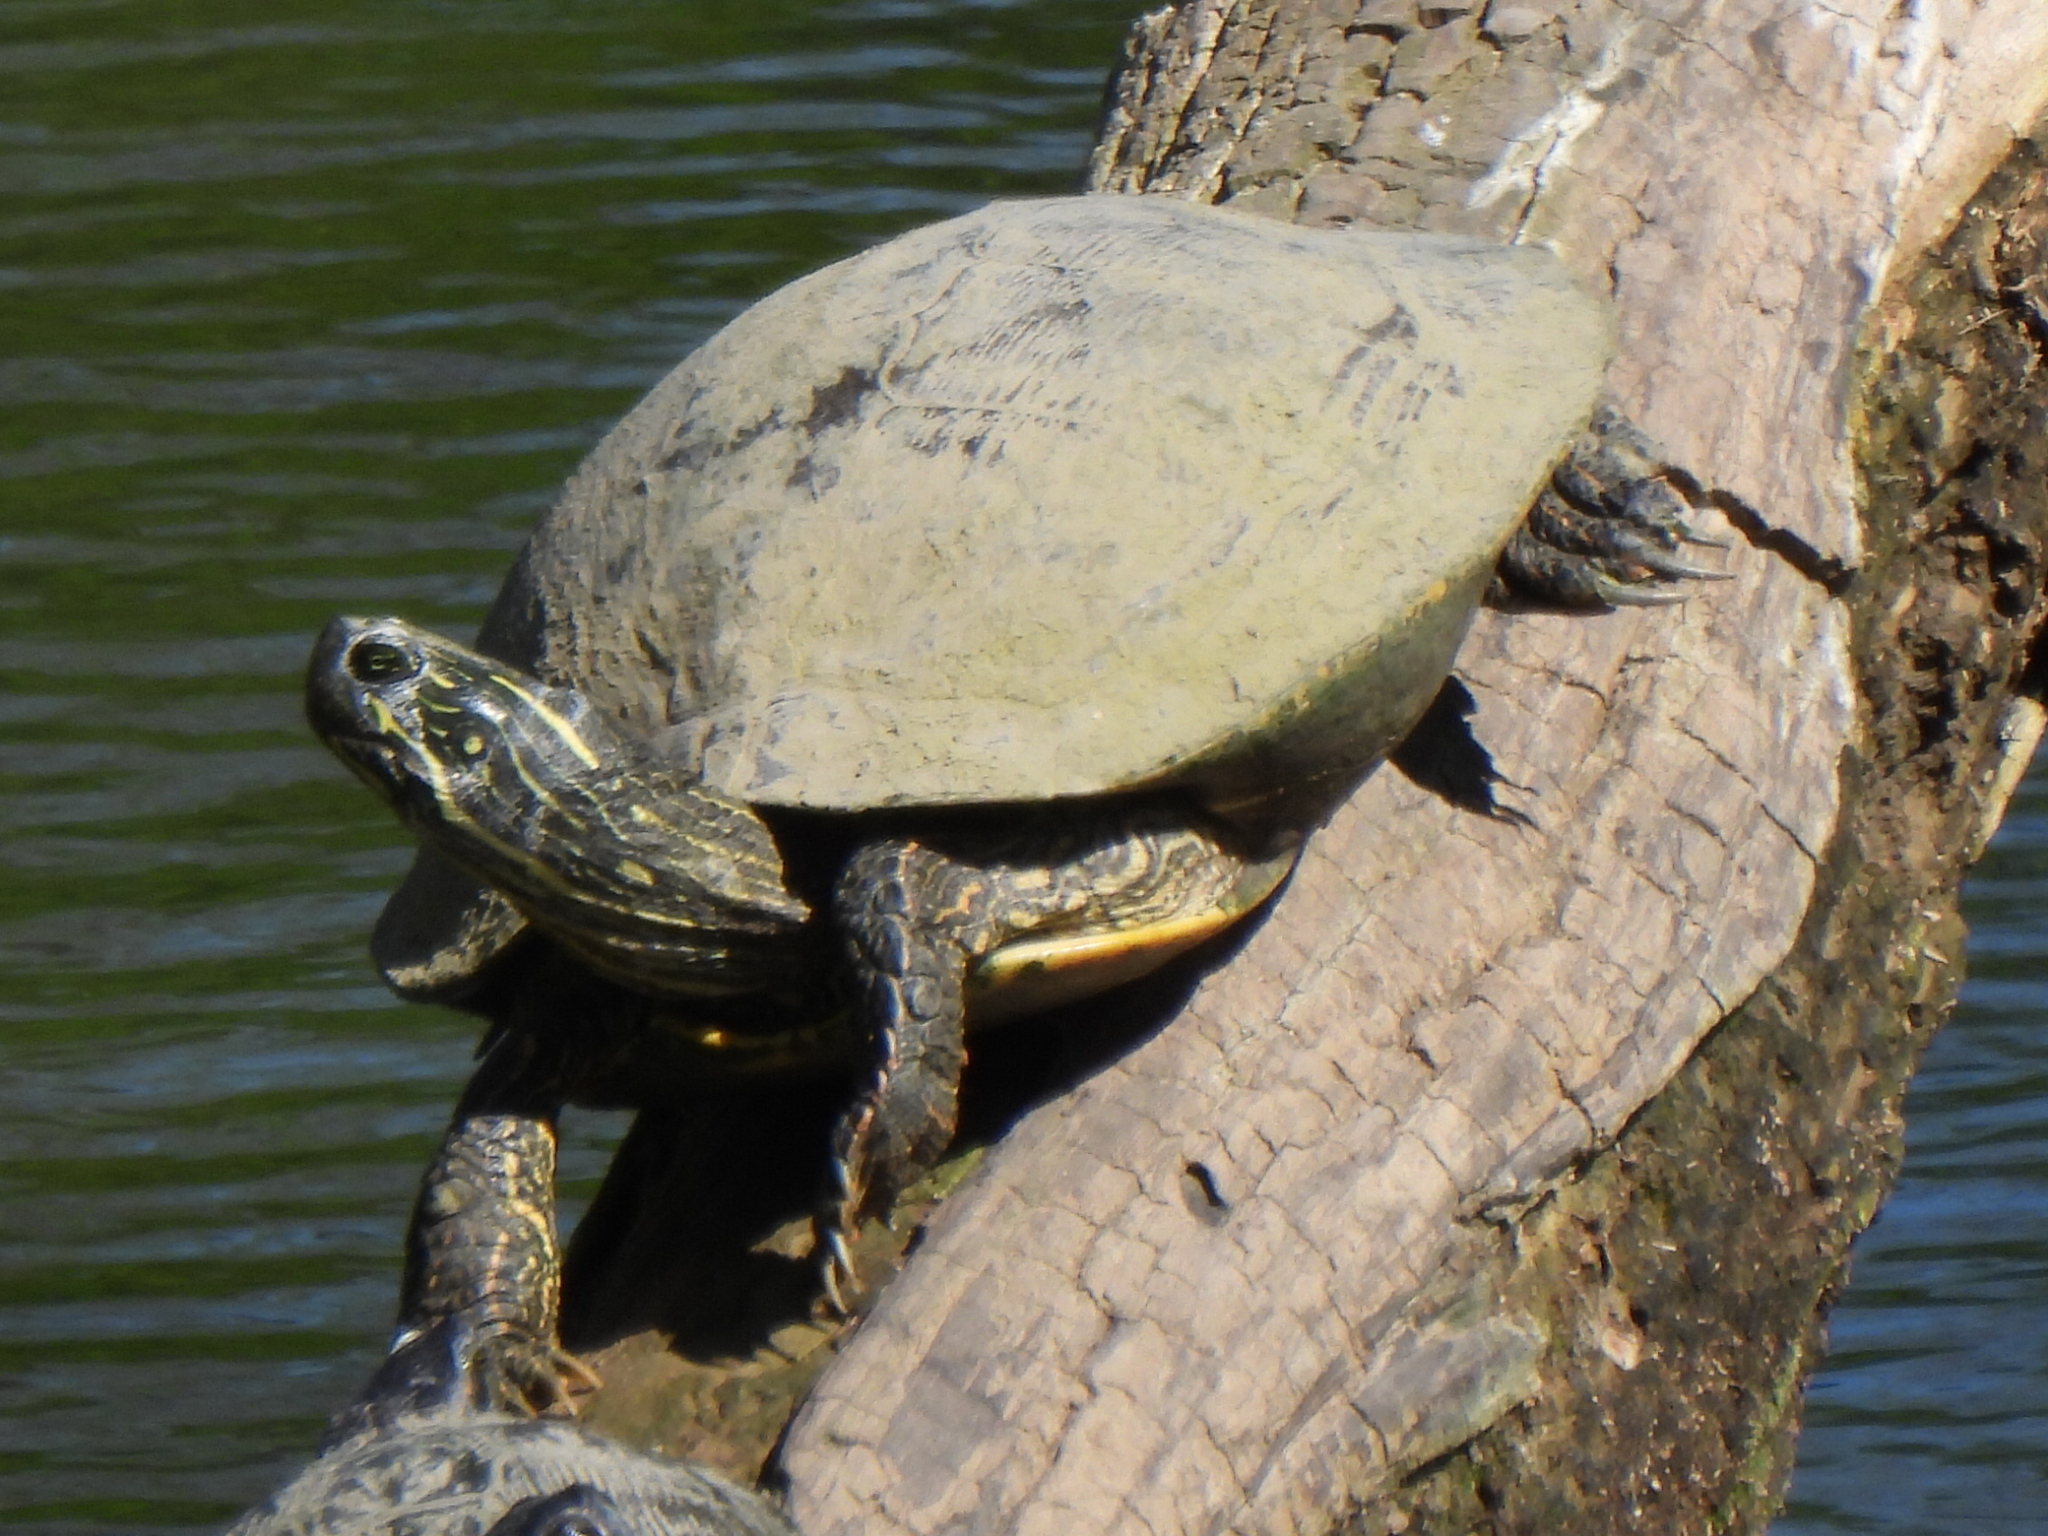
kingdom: Animalia
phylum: Chordata
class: Testudines
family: Emydidae
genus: Pseudemys
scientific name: Pseudemys texana
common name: Texas river cooter
